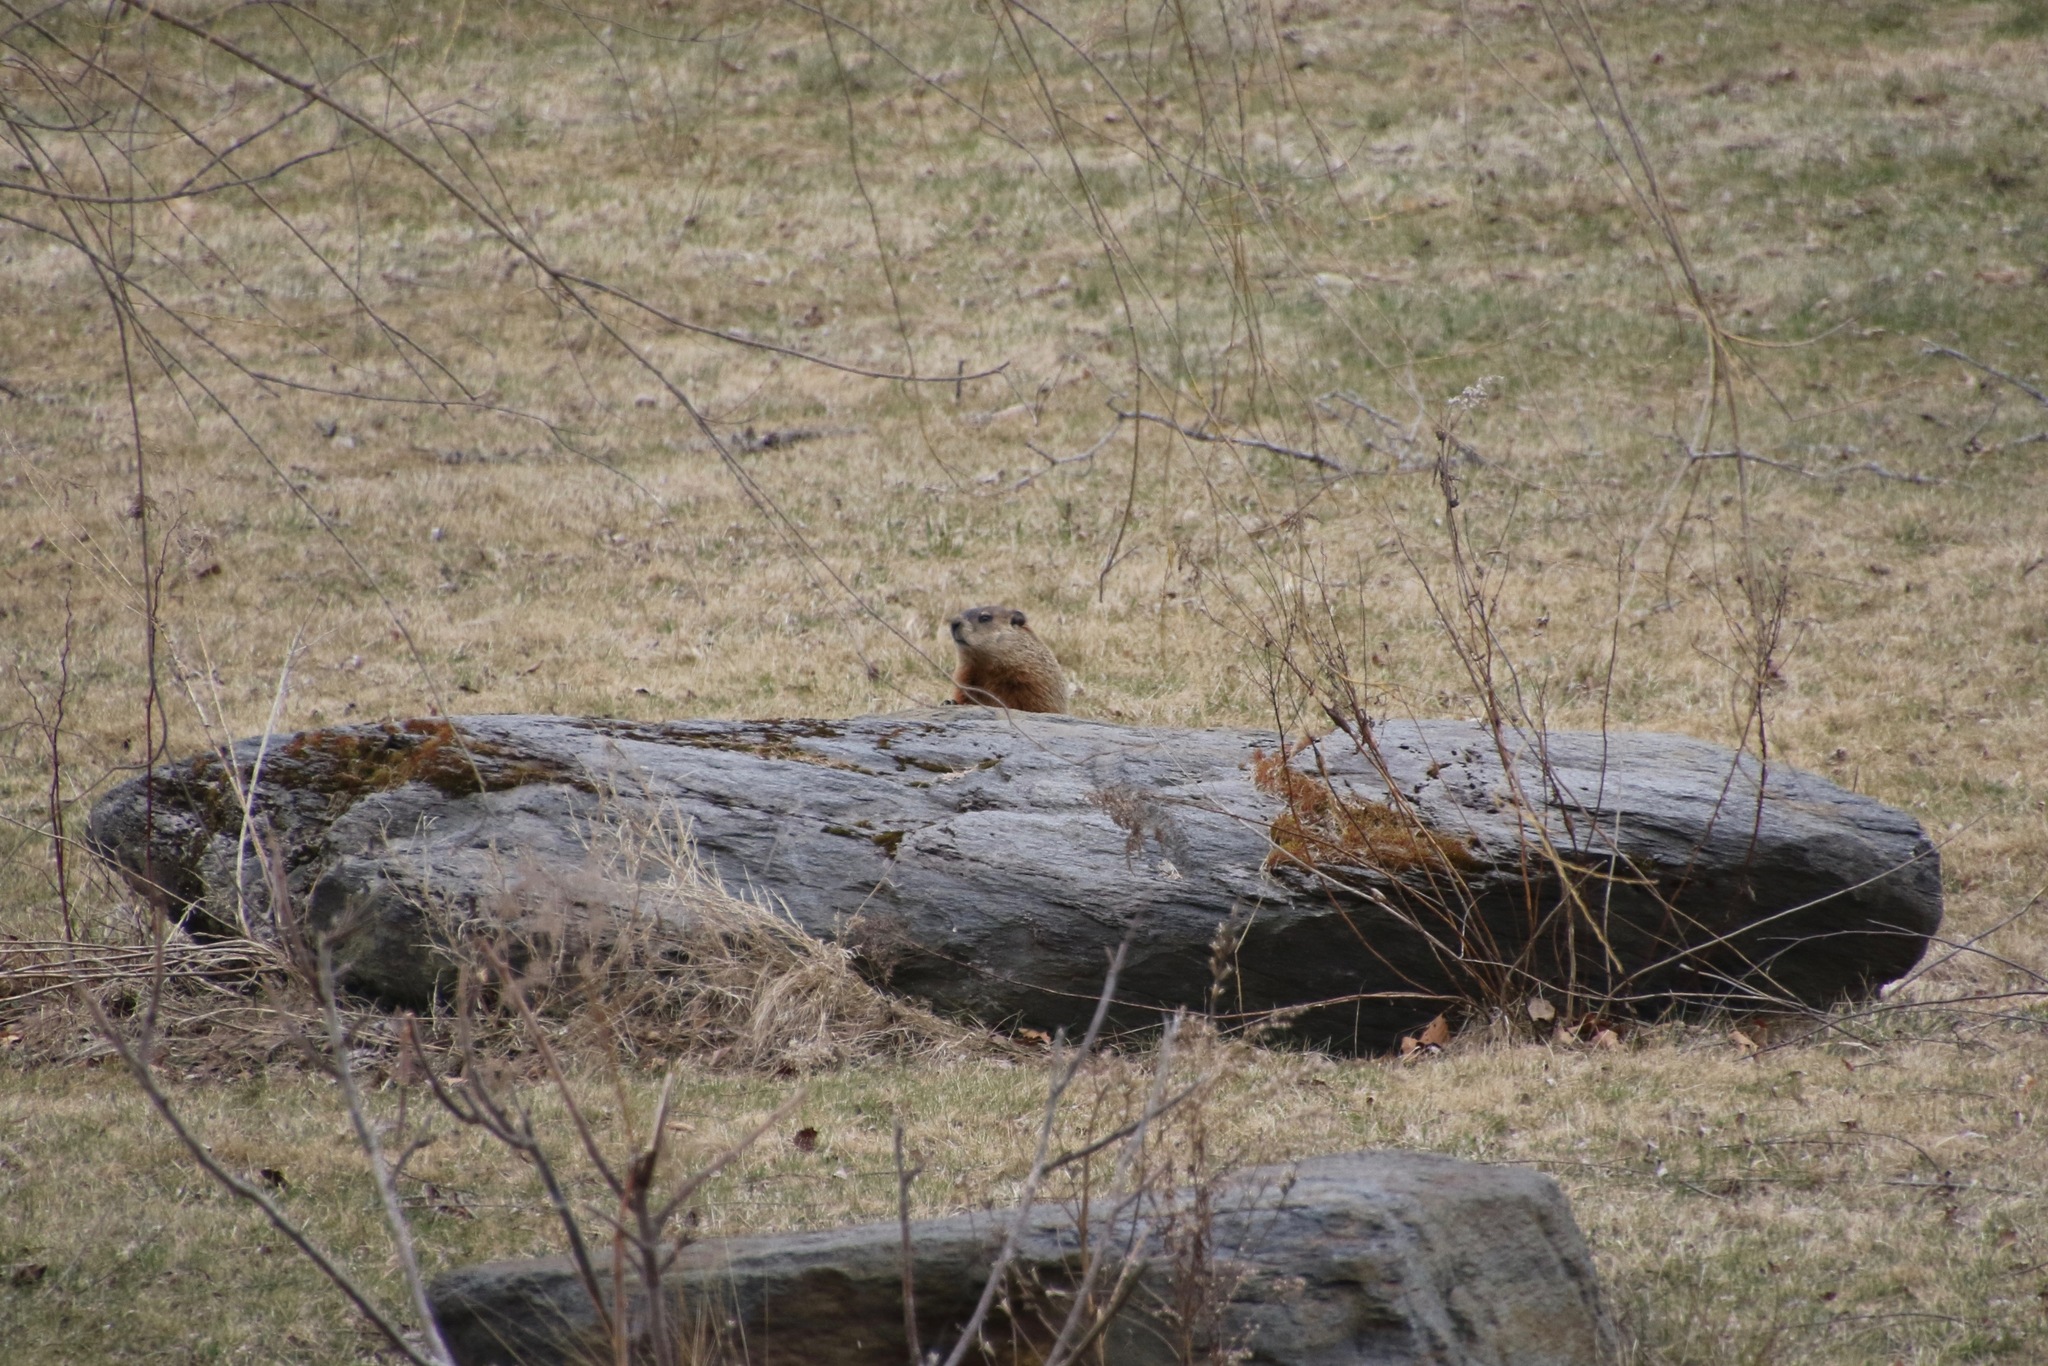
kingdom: Animalia
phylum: Chordata
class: Mammalia
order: Rodentia
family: Sciuridae
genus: Marmota
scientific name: Marmota monax
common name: Groundhog
